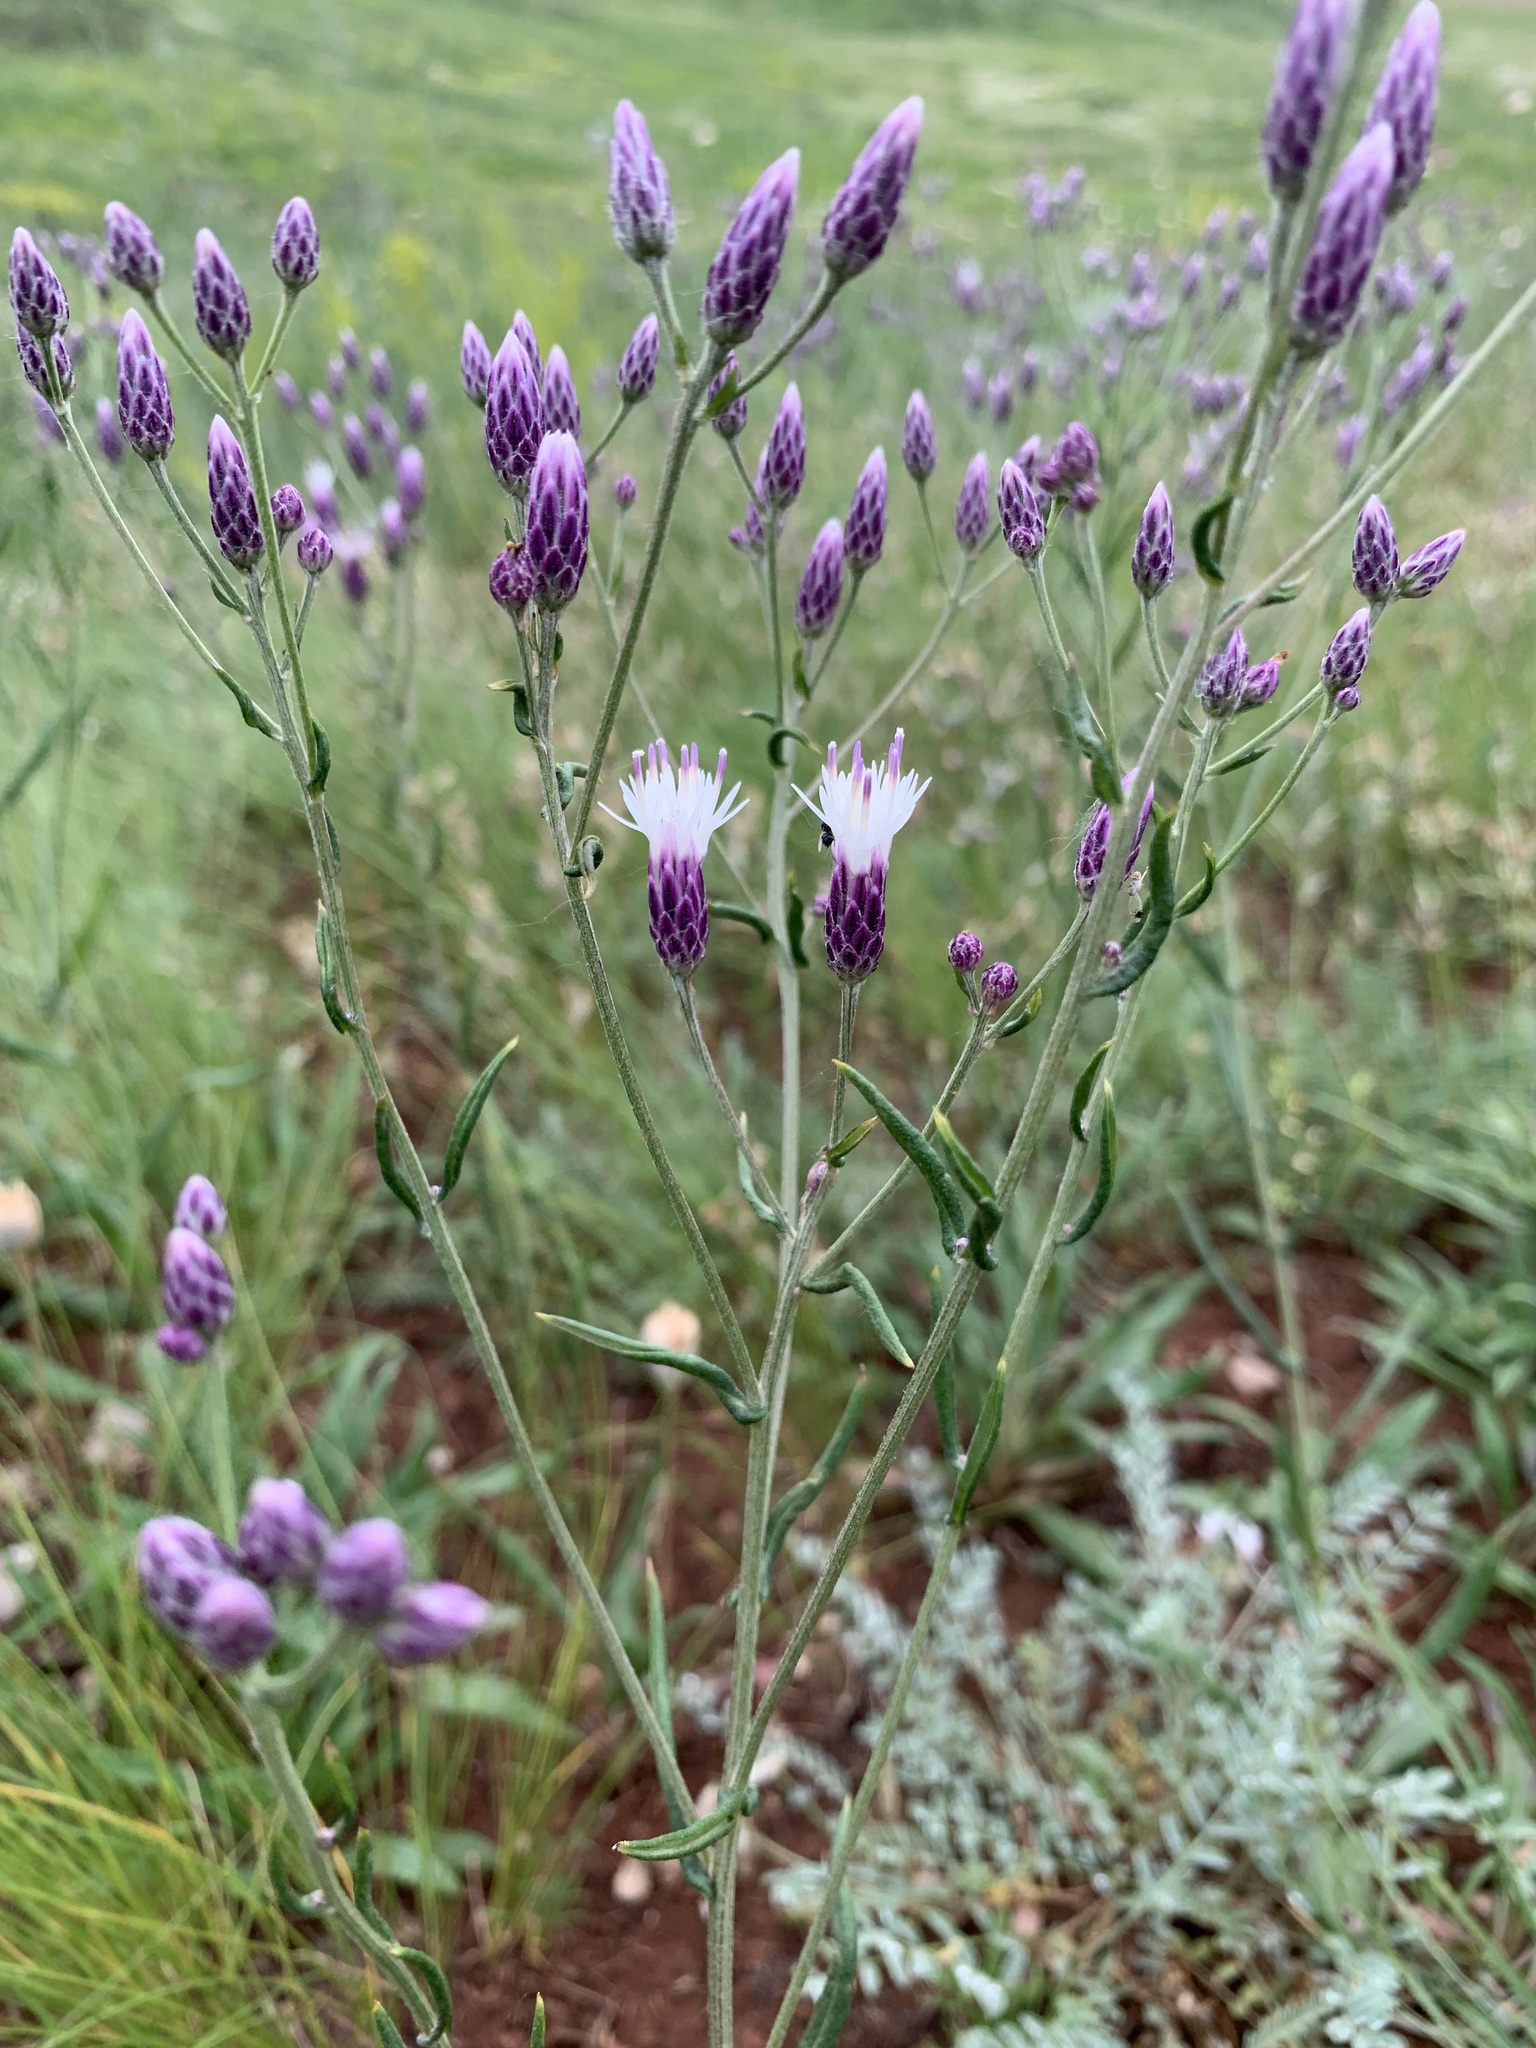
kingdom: Plantae
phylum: Tracheophyta
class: Magnoliopsida
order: Asterales
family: Asteraceae
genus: Jurinea
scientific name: Jurinea multiflora
